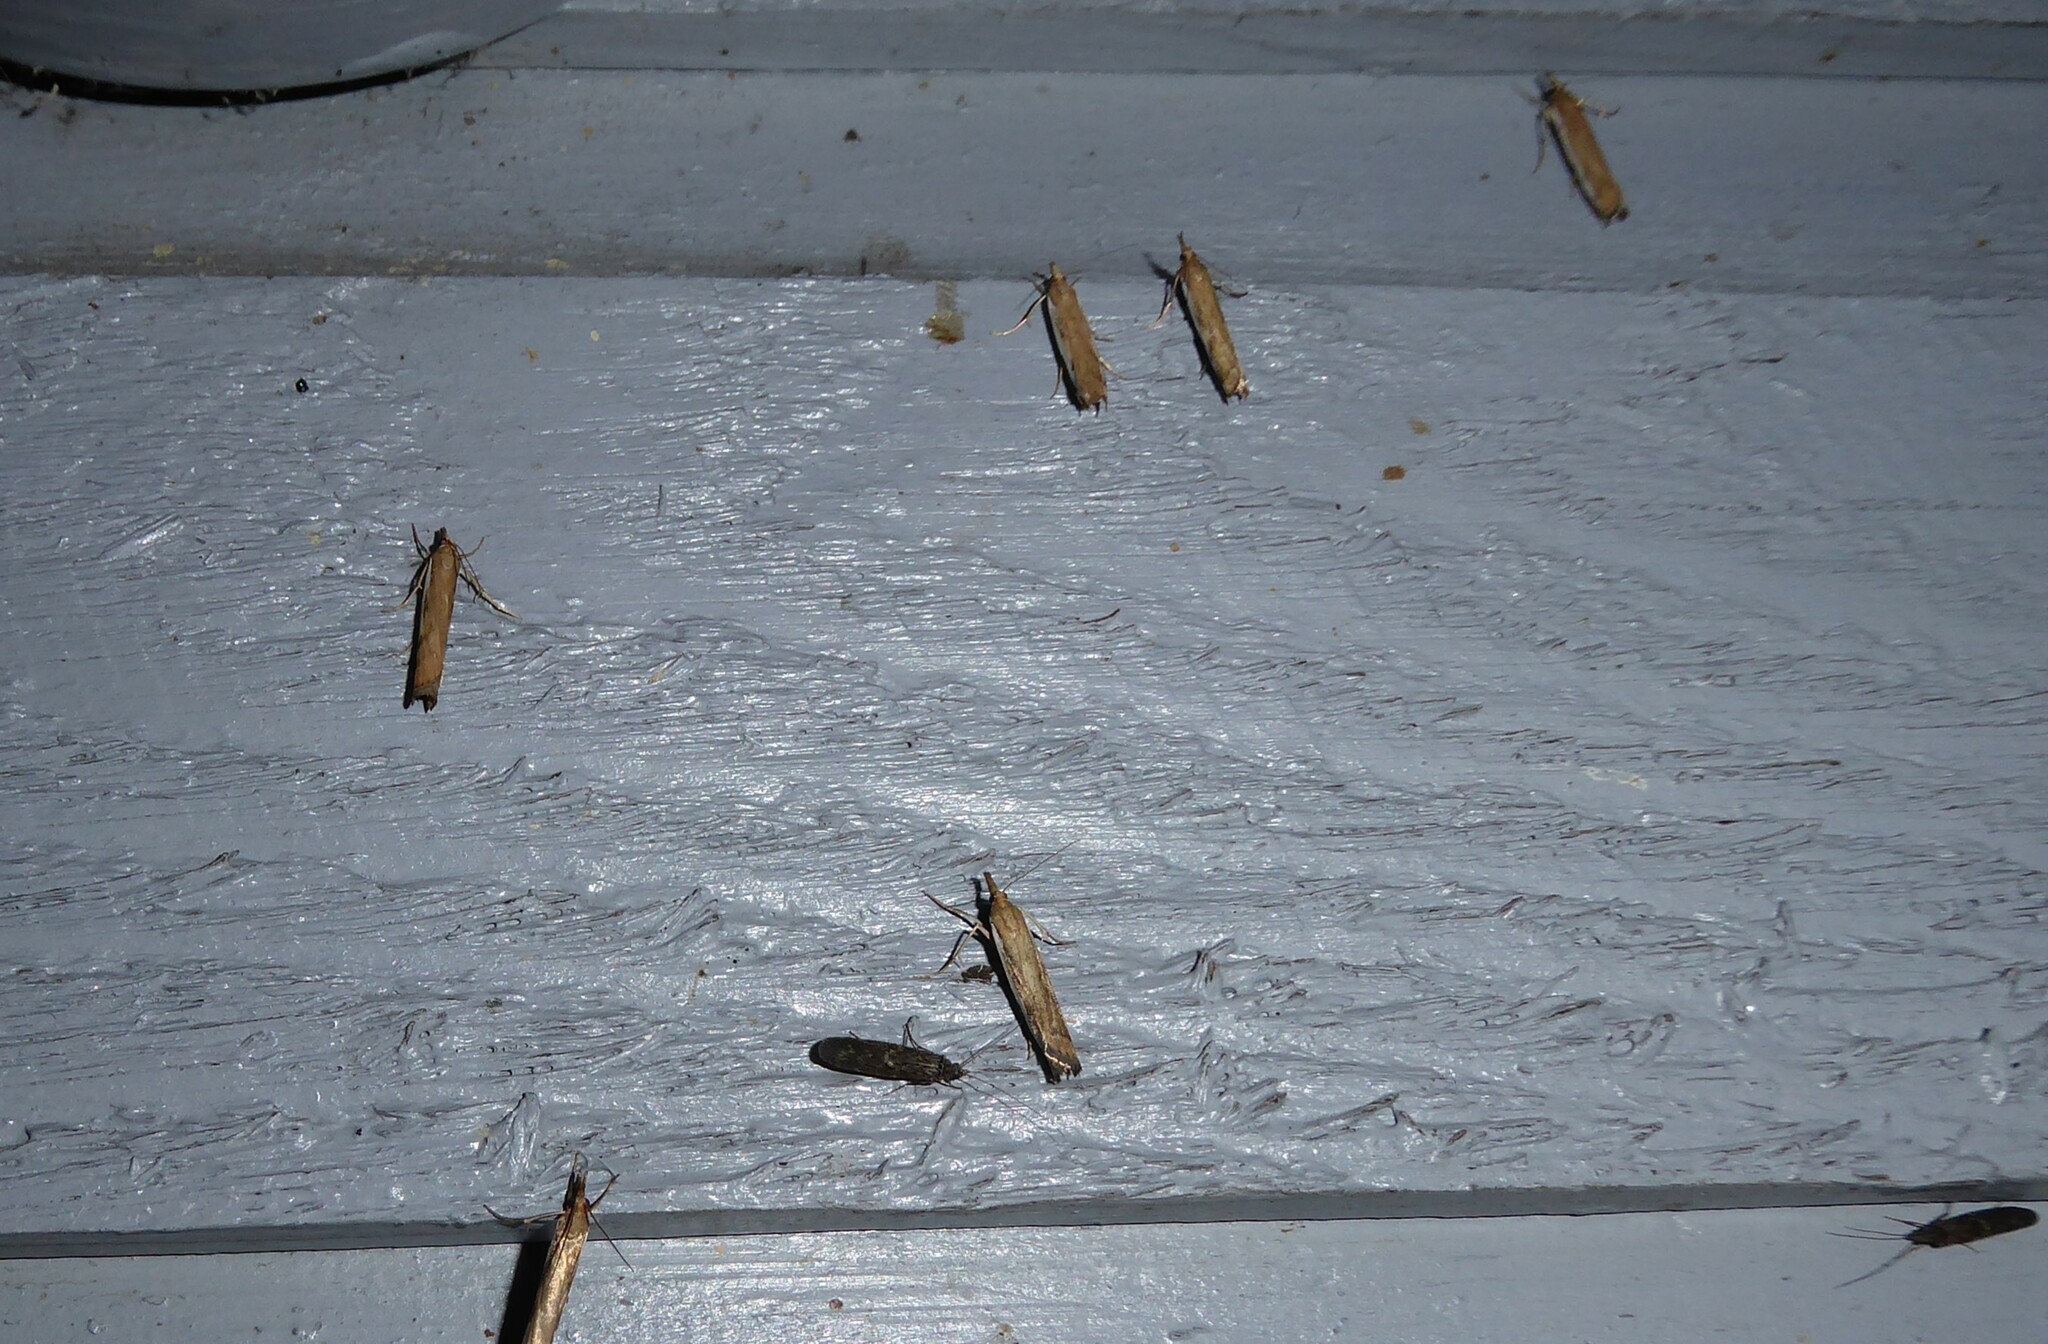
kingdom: Animalia
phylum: Arthropoda
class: Insecta
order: Lepidoptera
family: Crambidae
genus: Orocrambus
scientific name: Orocrambus flexuosellus
